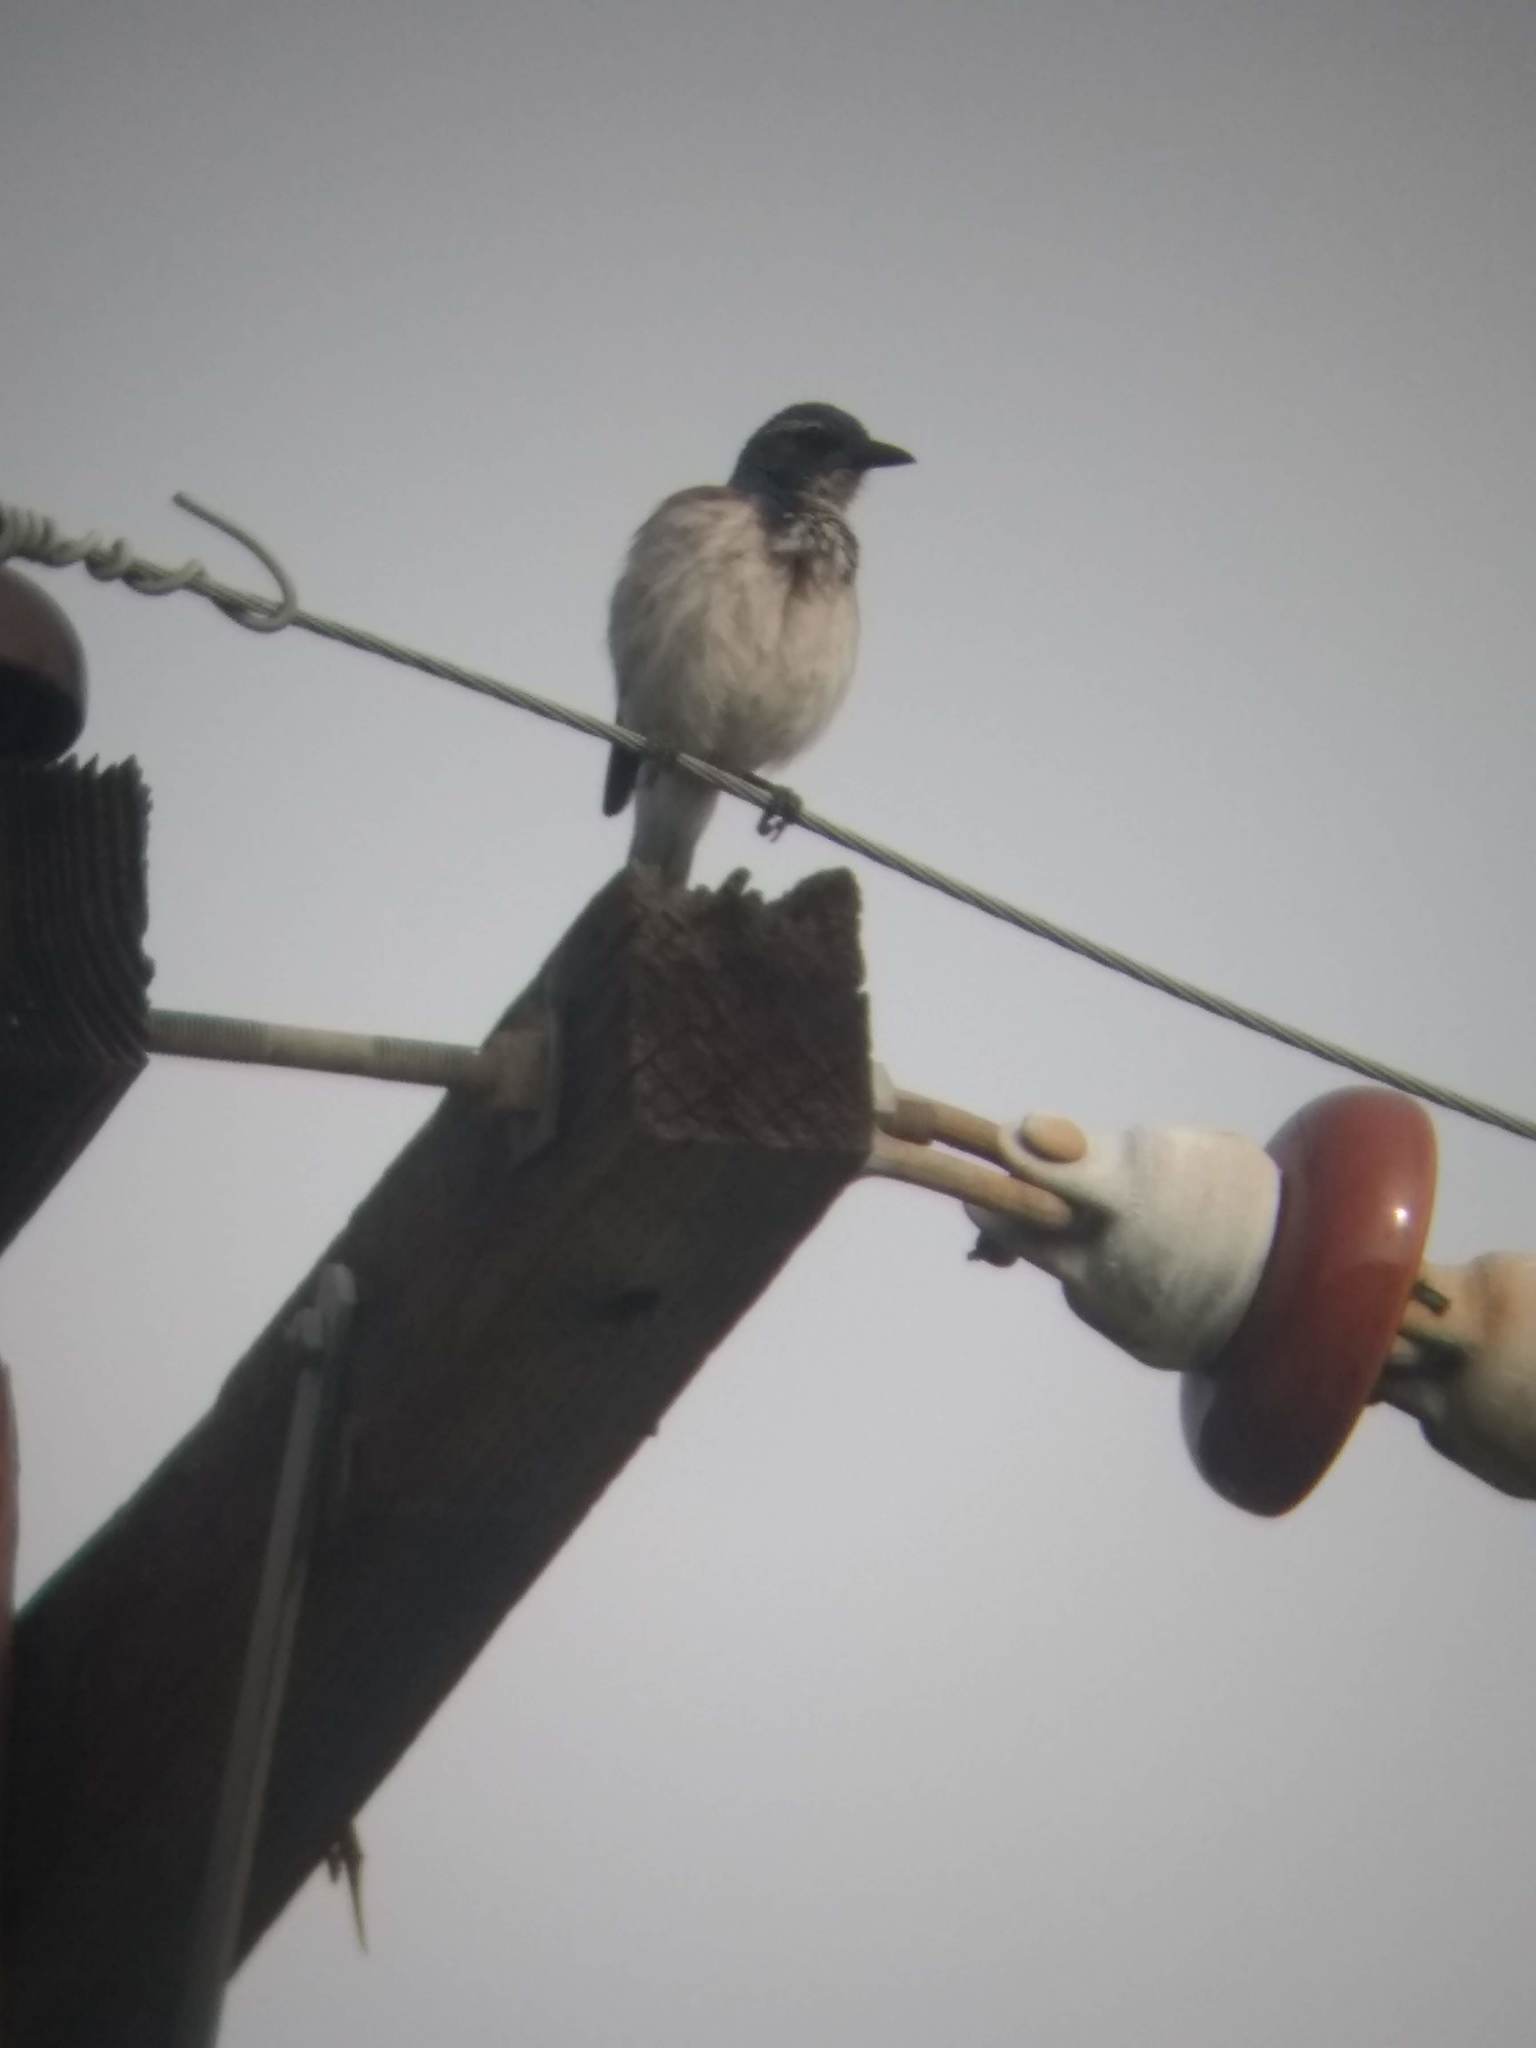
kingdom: Animalia
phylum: Chordata
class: Aves
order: Passeriformes
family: Corvidae
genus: Aphelocoma
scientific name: Aphelocoma californica
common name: California scrub-jay
